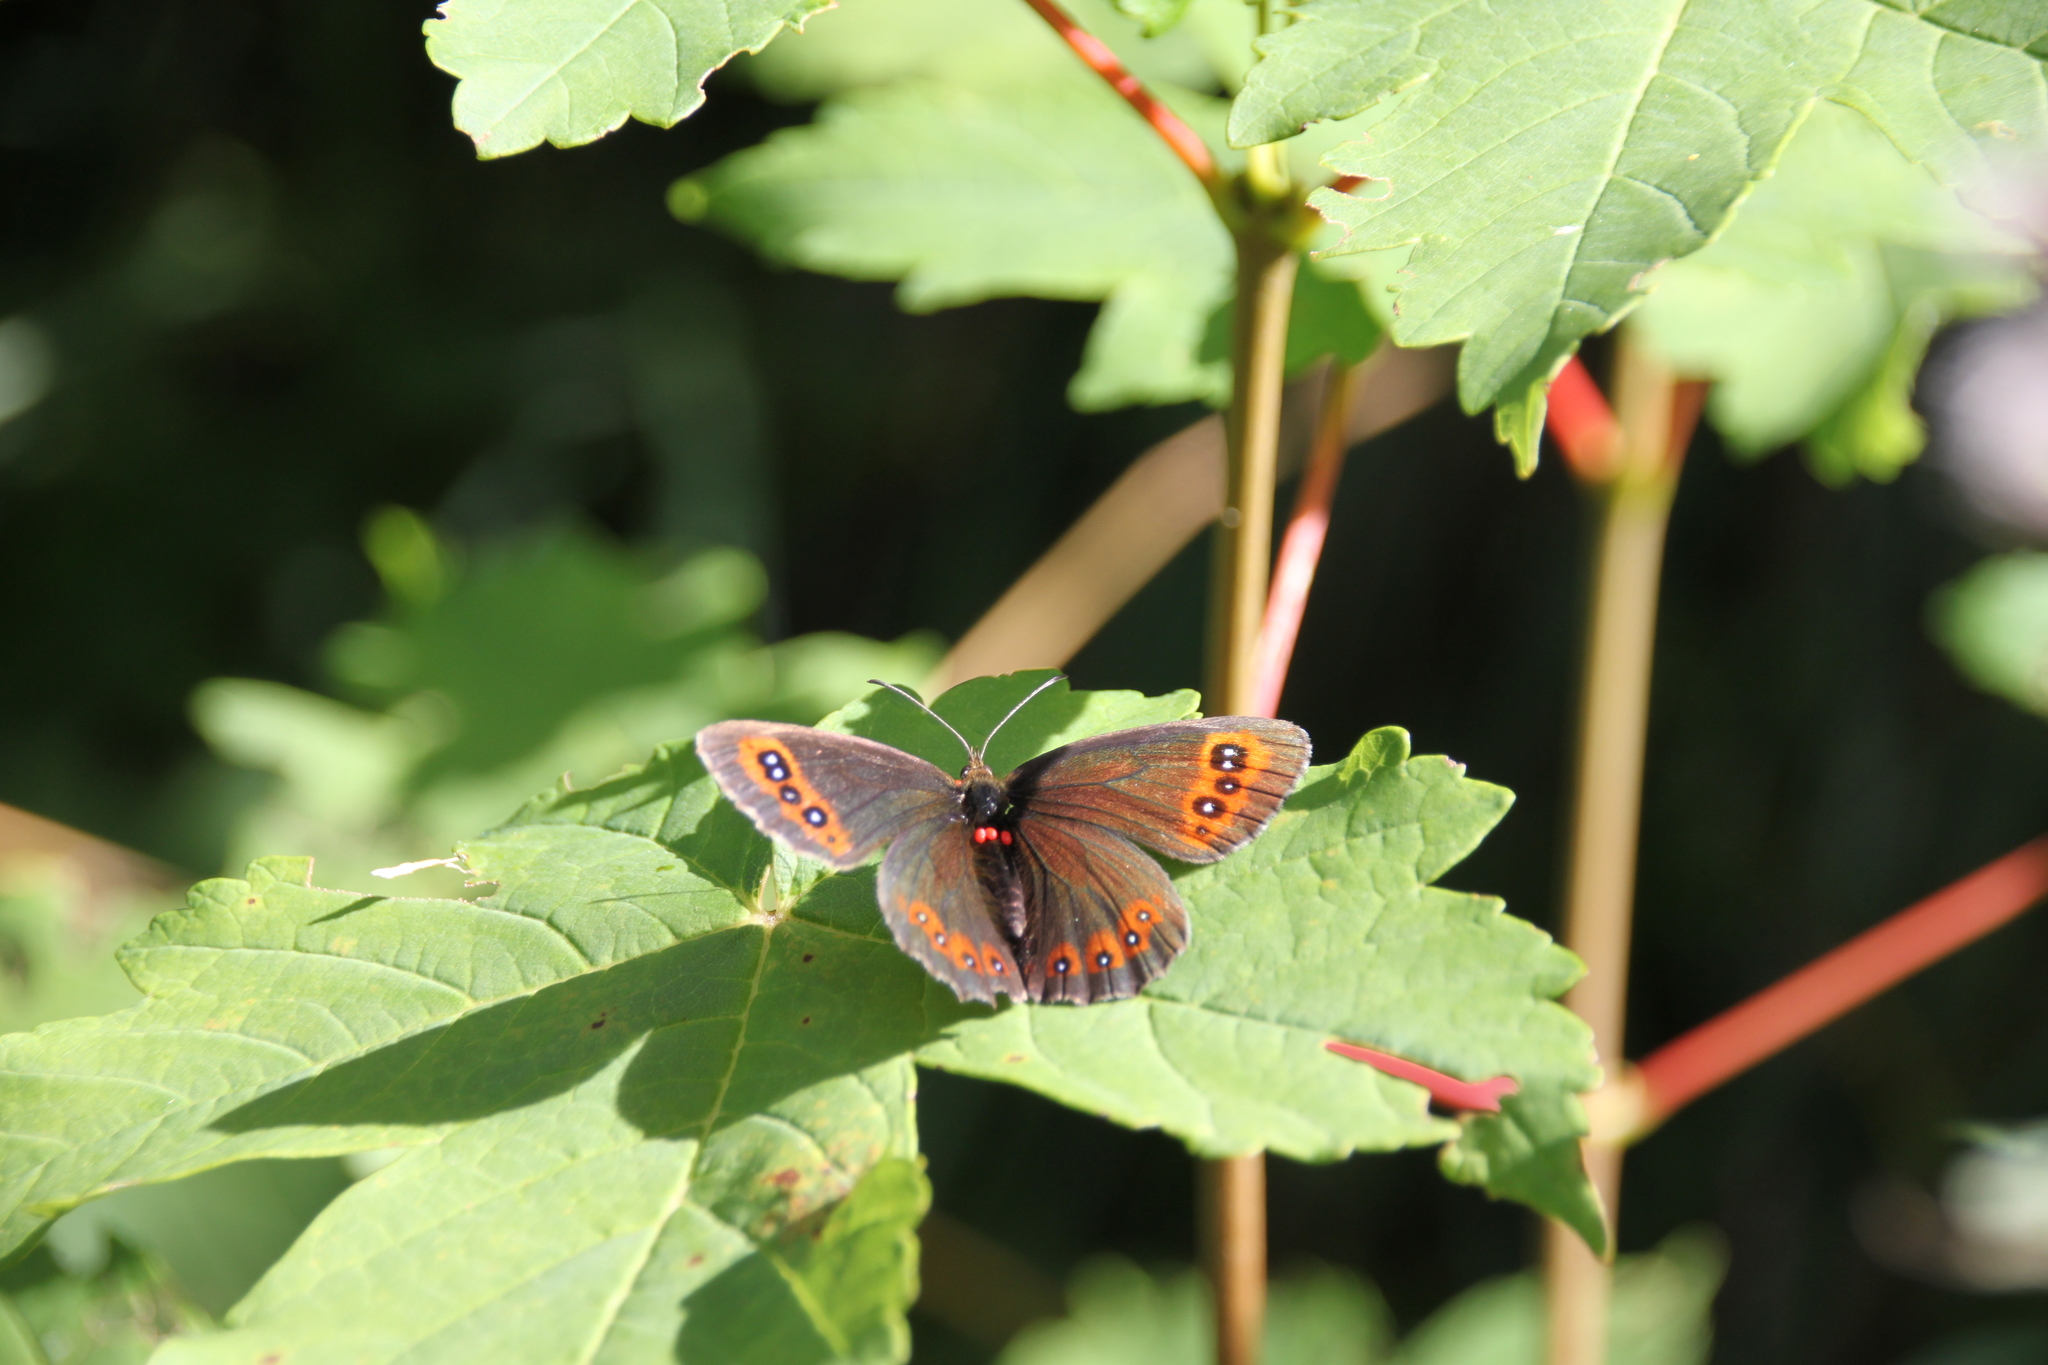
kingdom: Animalia
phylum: Arthropoda
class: Insecta
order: Lepidoptera
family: Nymphalidae
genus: Erebia
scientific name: Erebia aethiops
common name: Scotch argus
